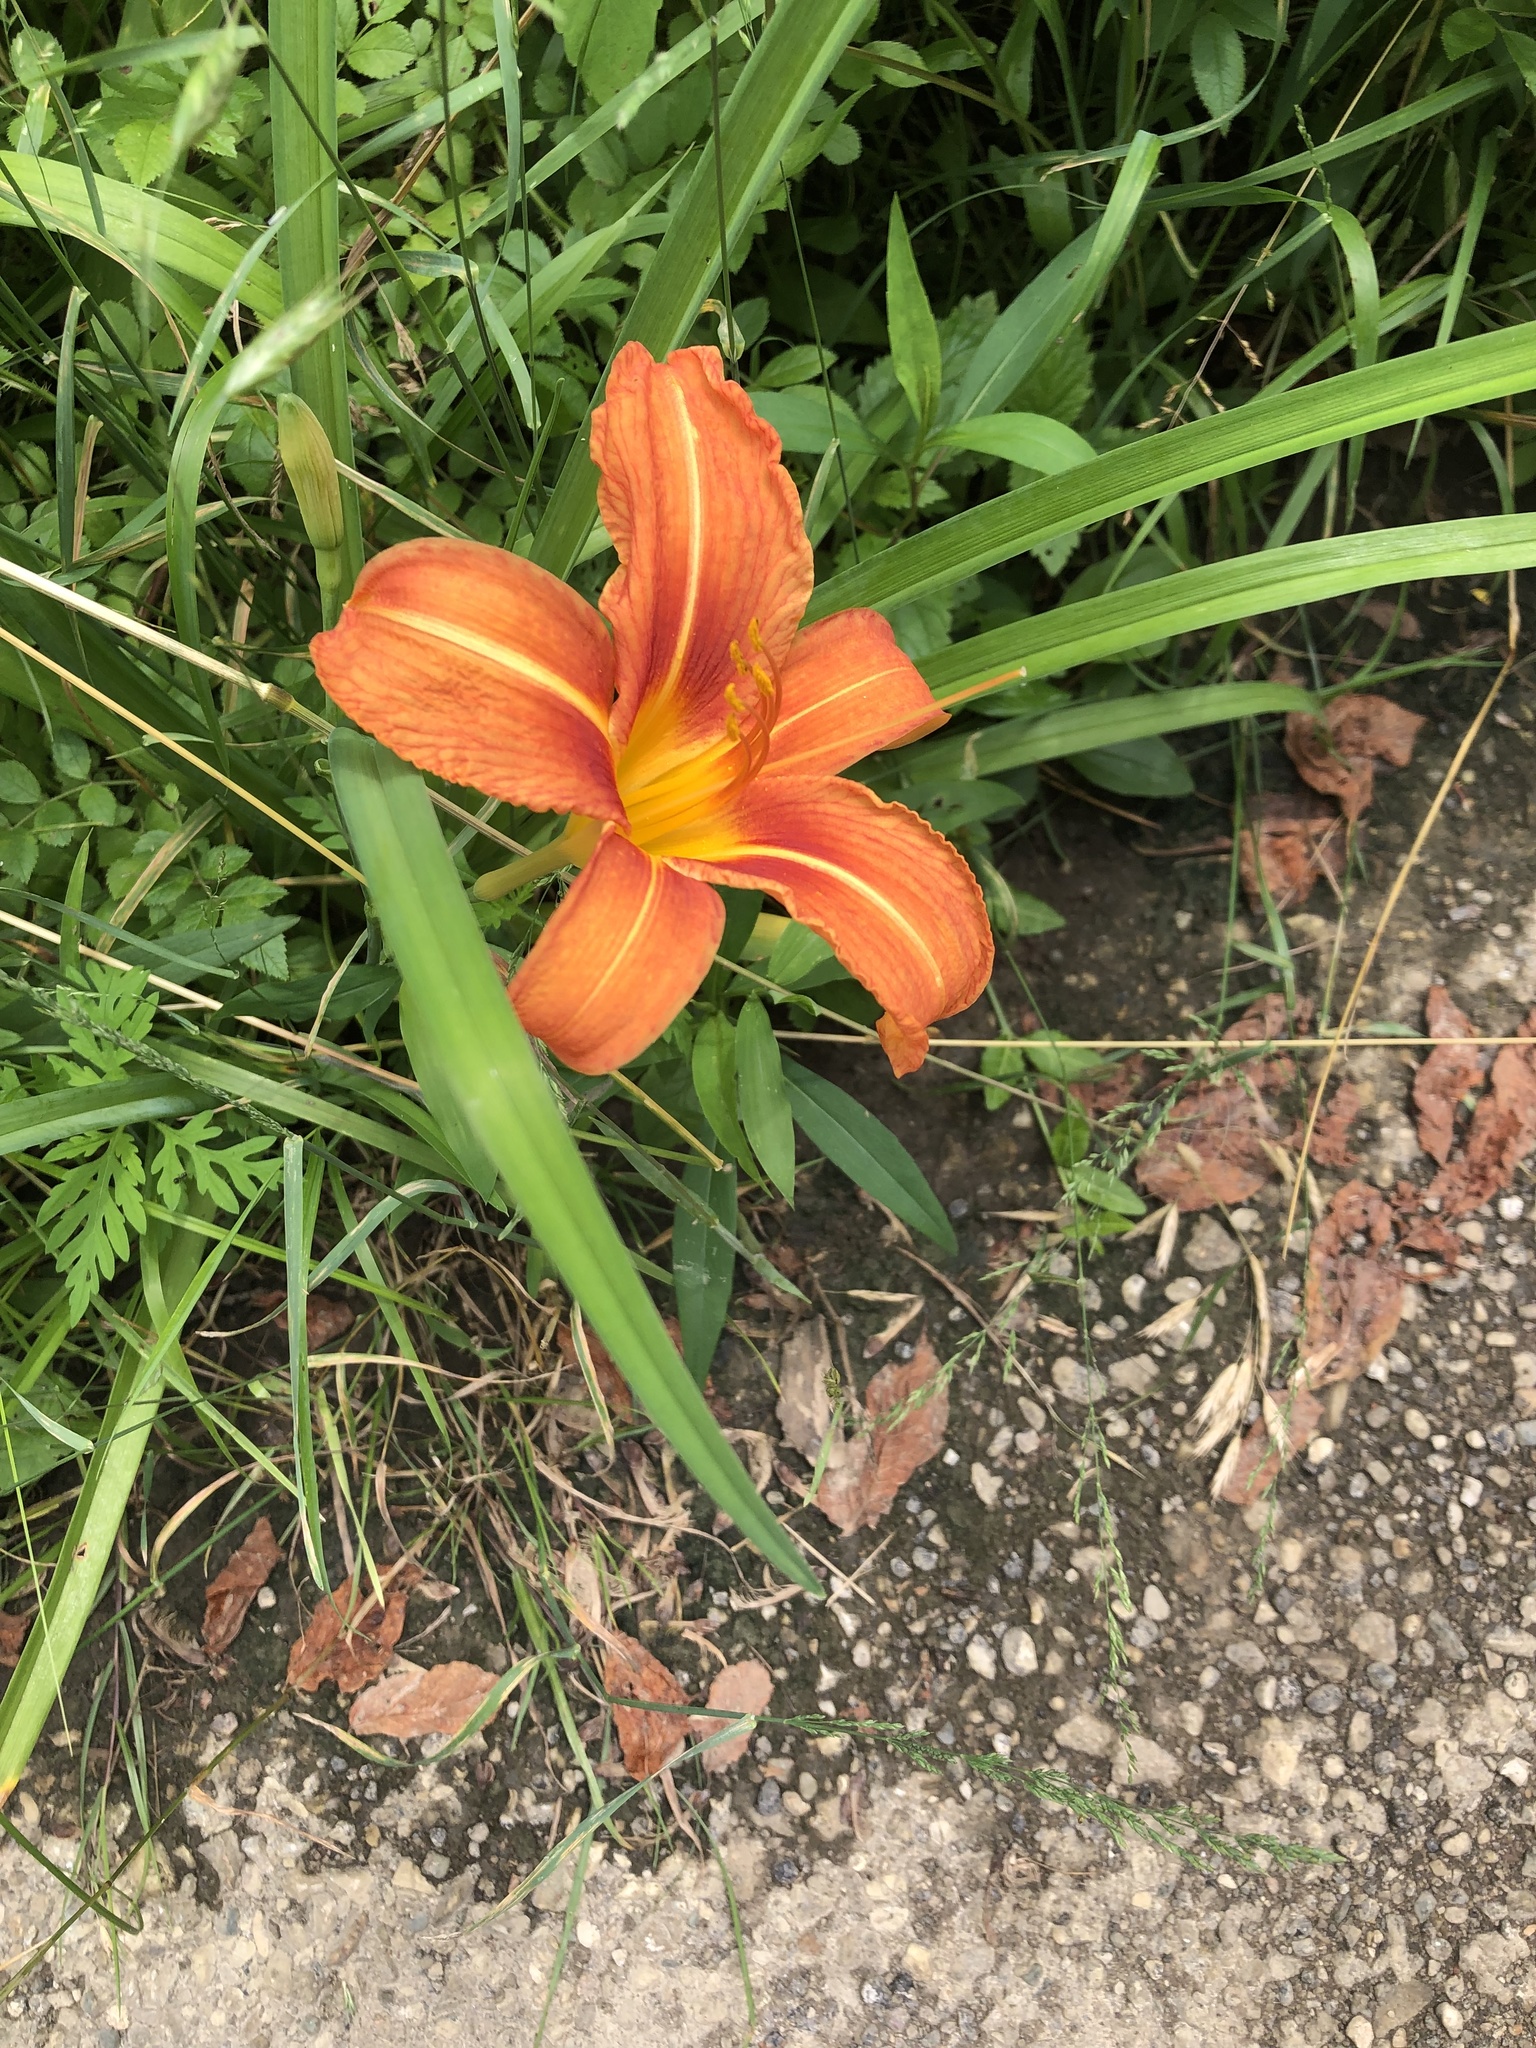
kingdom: Plantae
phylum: Tracheophyta
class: Liliopsida
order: Asparagales
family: Asphodelaceae
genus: Hemerocallis
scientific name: Hemerocallis fulva
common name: Orange day-lily
